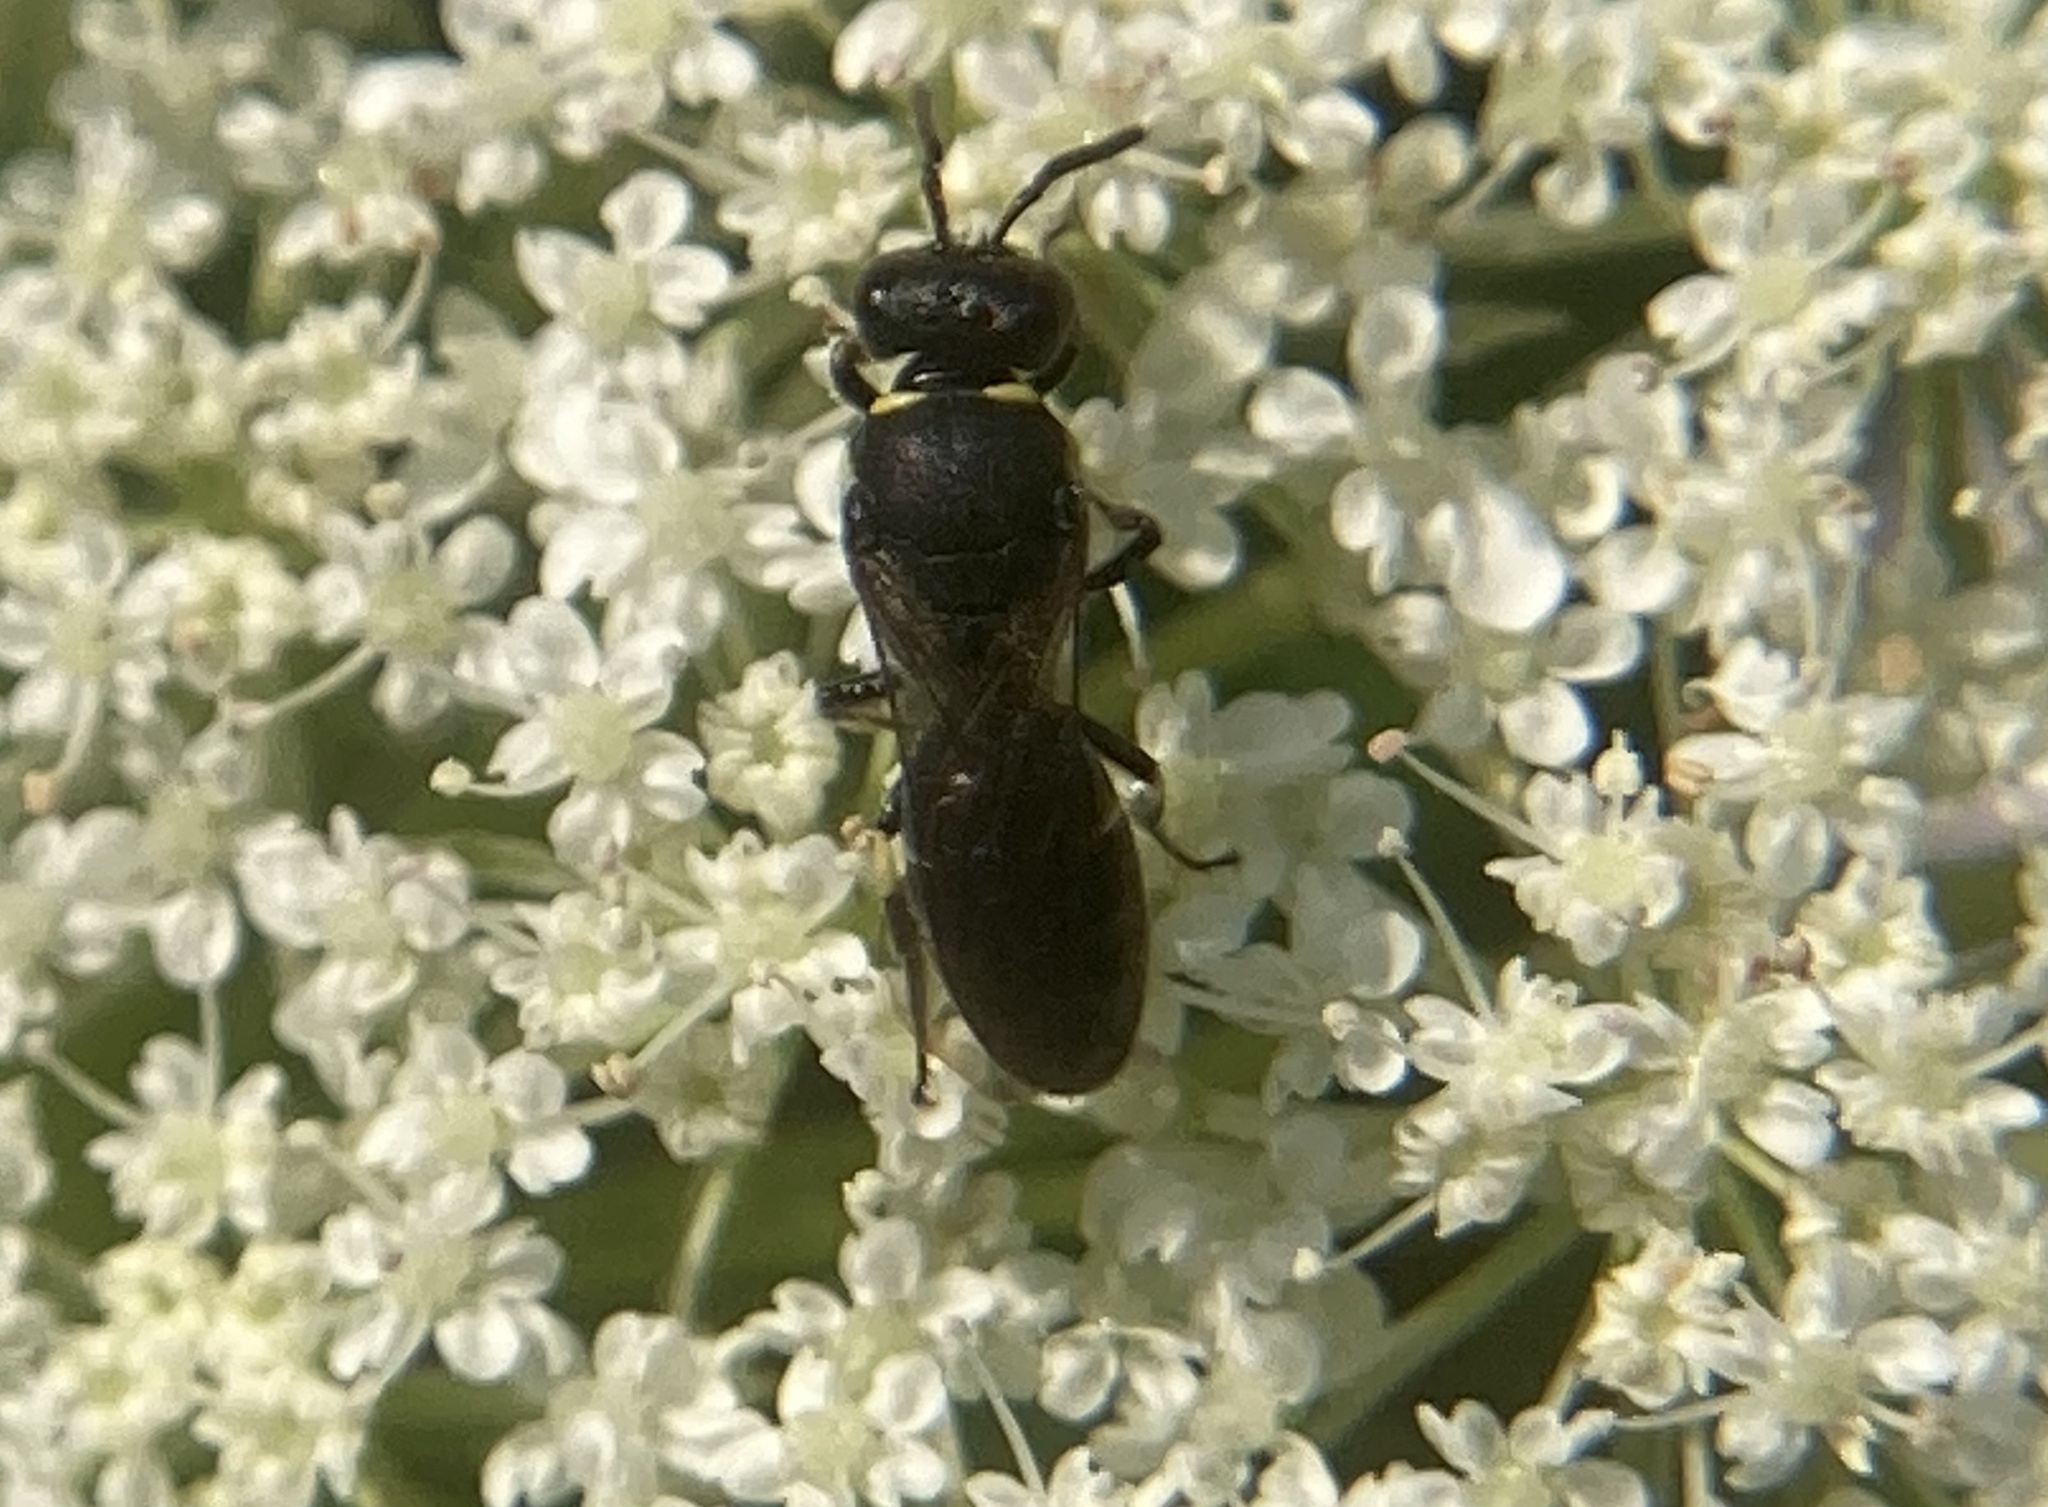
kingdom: Animalia
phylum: Arthropoda
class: Insecta
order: Hymenoptera
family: Colletidae
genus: Hylaeus
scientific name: Hylaeus modestus
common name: Yellow-faced bee
